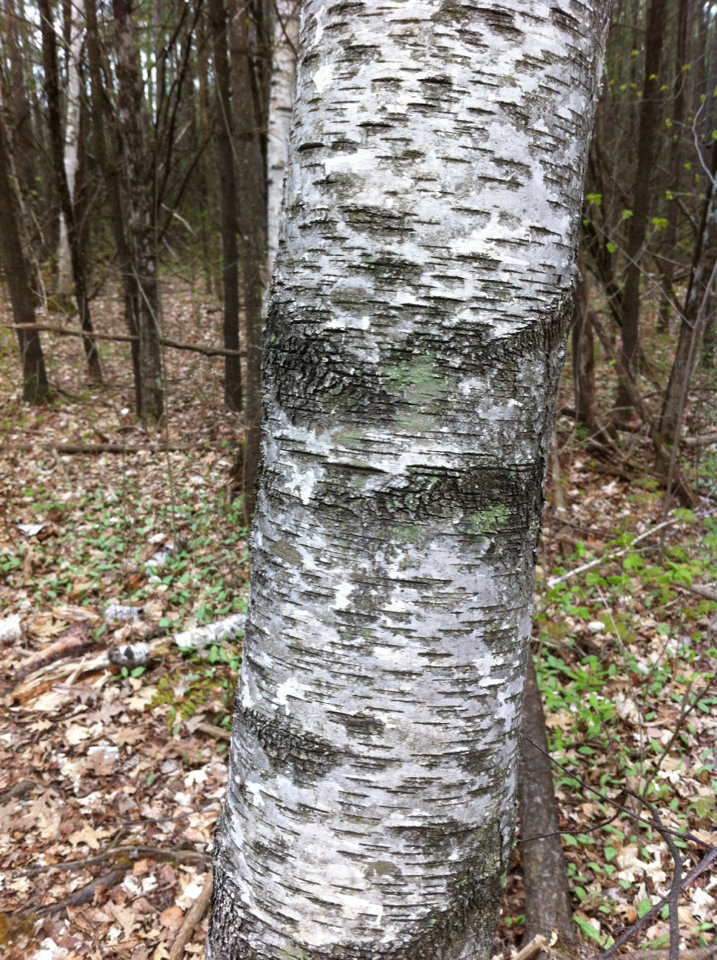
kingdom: Plantae
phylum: Tracheophyta
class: Magnoliopsida
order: Fagales
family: Betulaceae
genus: Betula
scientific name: Betula populifolia
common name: Fire birch
